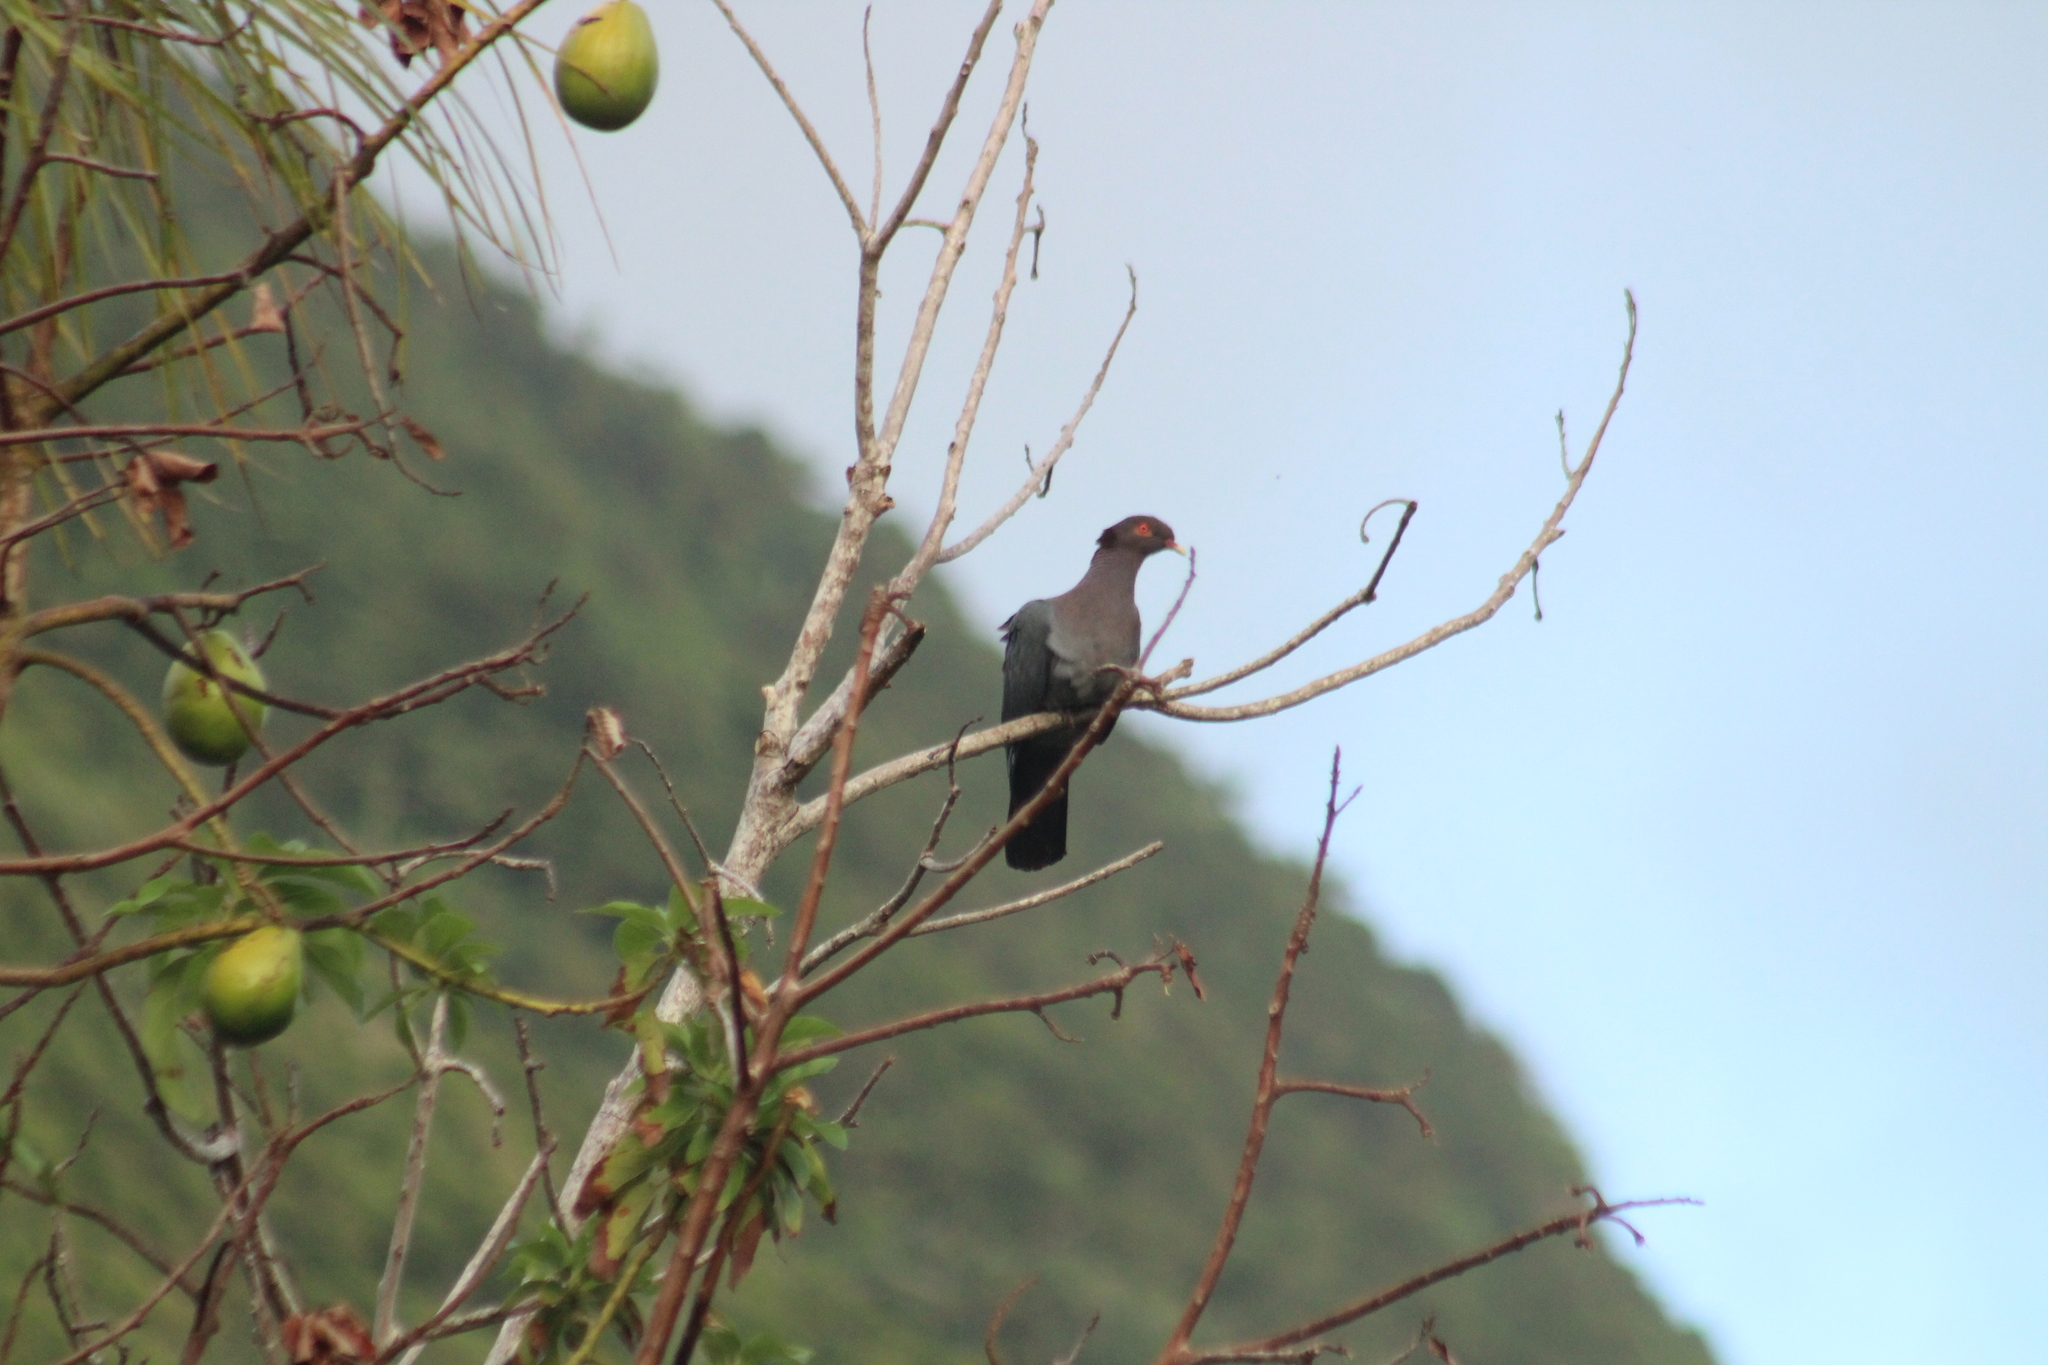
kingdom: Animalia
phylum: Chordata
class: Aves
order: Columbiformes
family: Columbidae
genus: Patagioenas
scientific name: Patagioenas squamosa
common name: Scaly-naped pigeon
